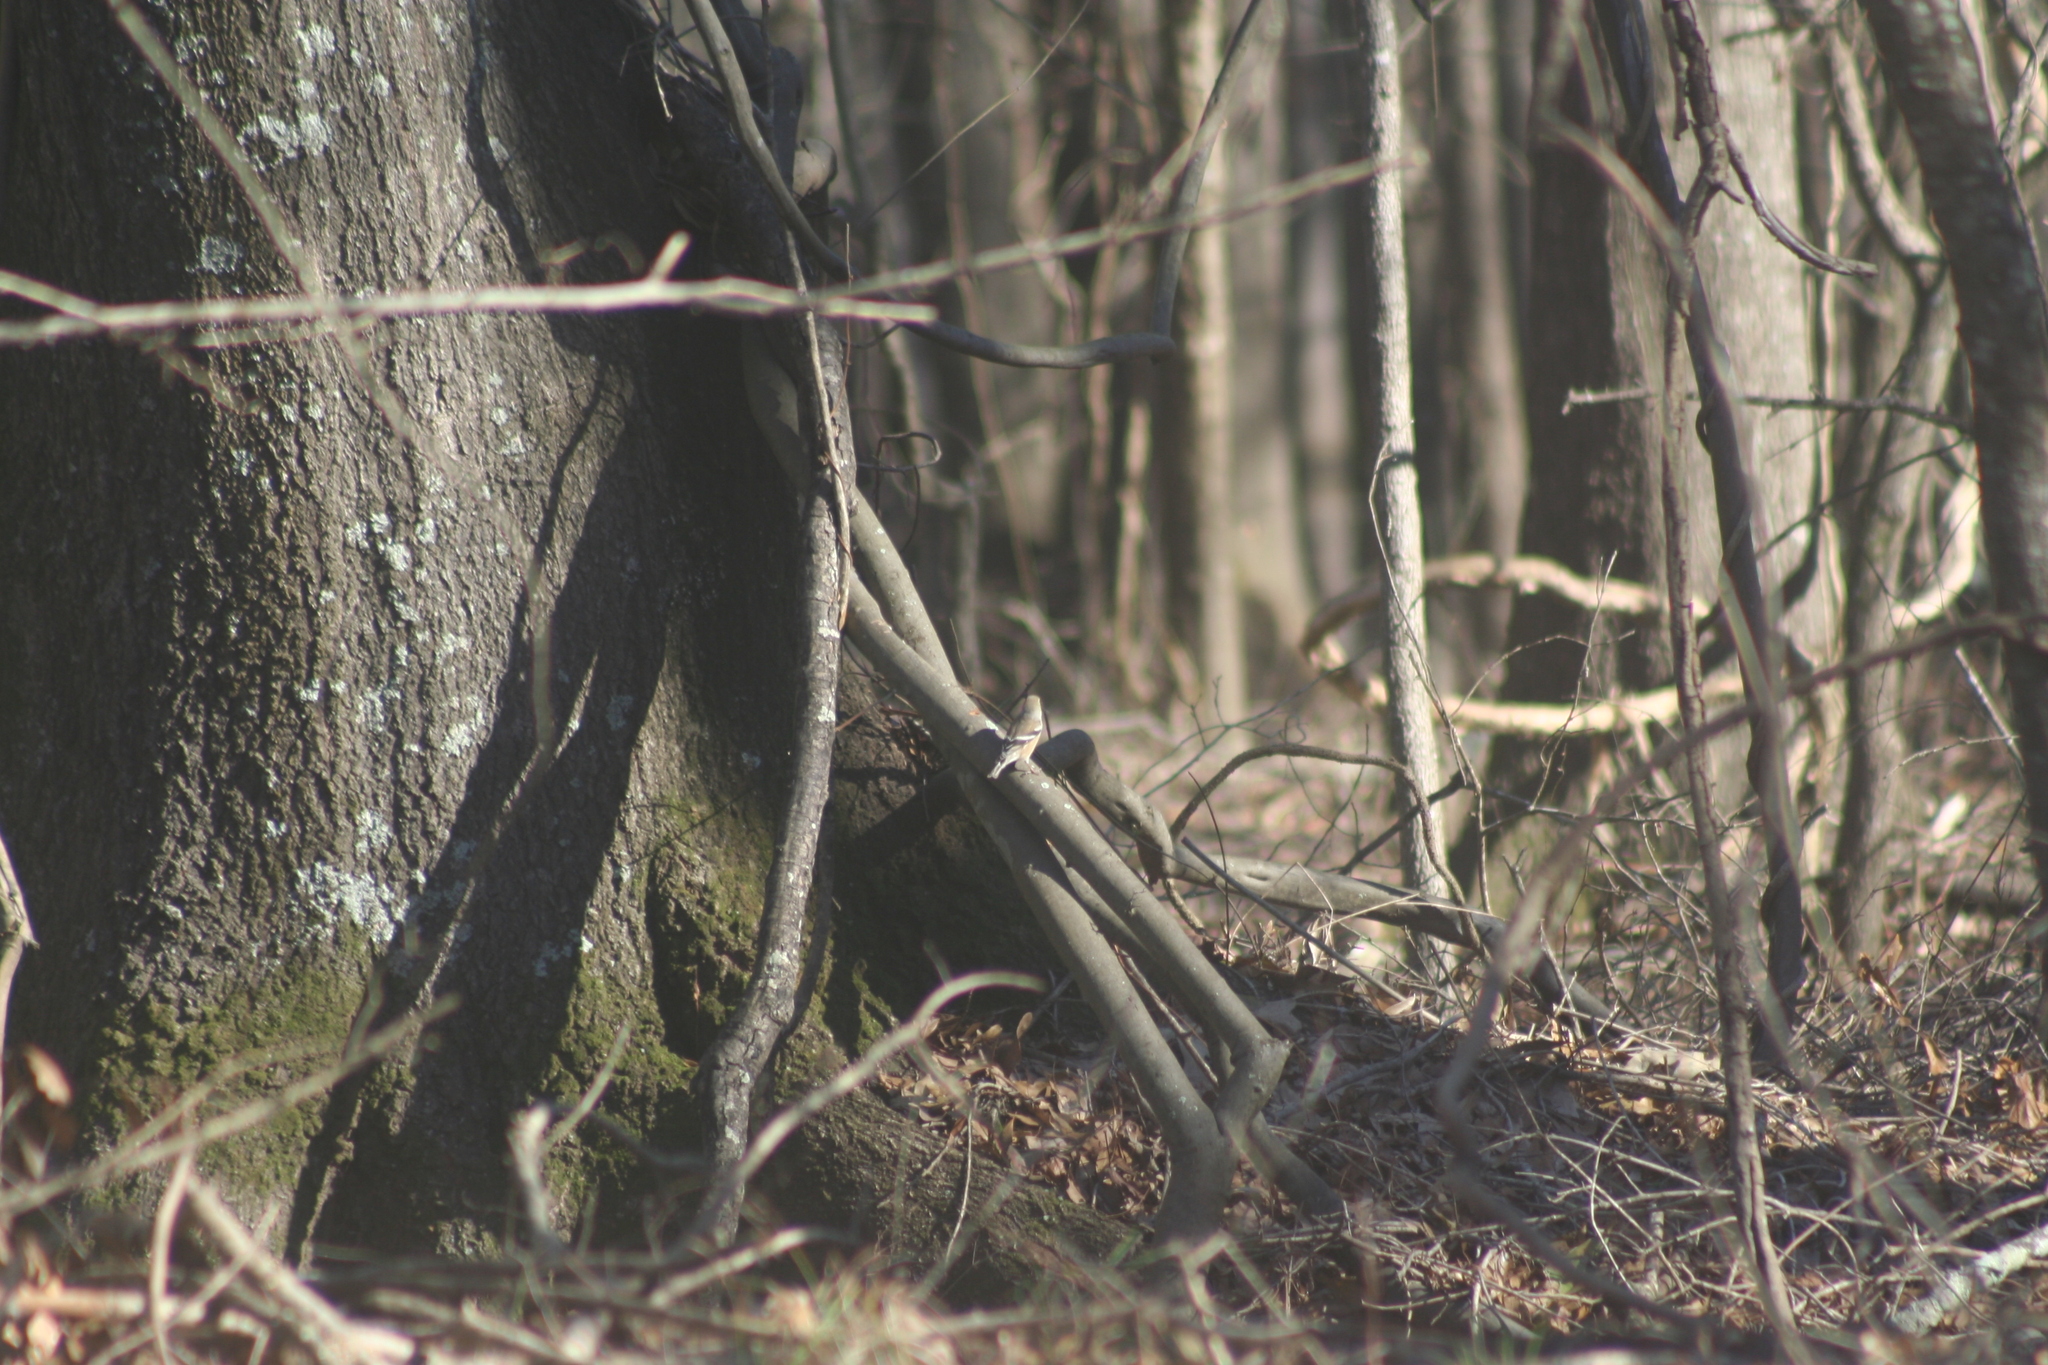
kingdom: Animalia
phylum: Chordata
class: Aves
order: Passeriformes
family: Fringillidae
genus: Spinus
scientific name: Spinus tristis
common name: American goldfinch
